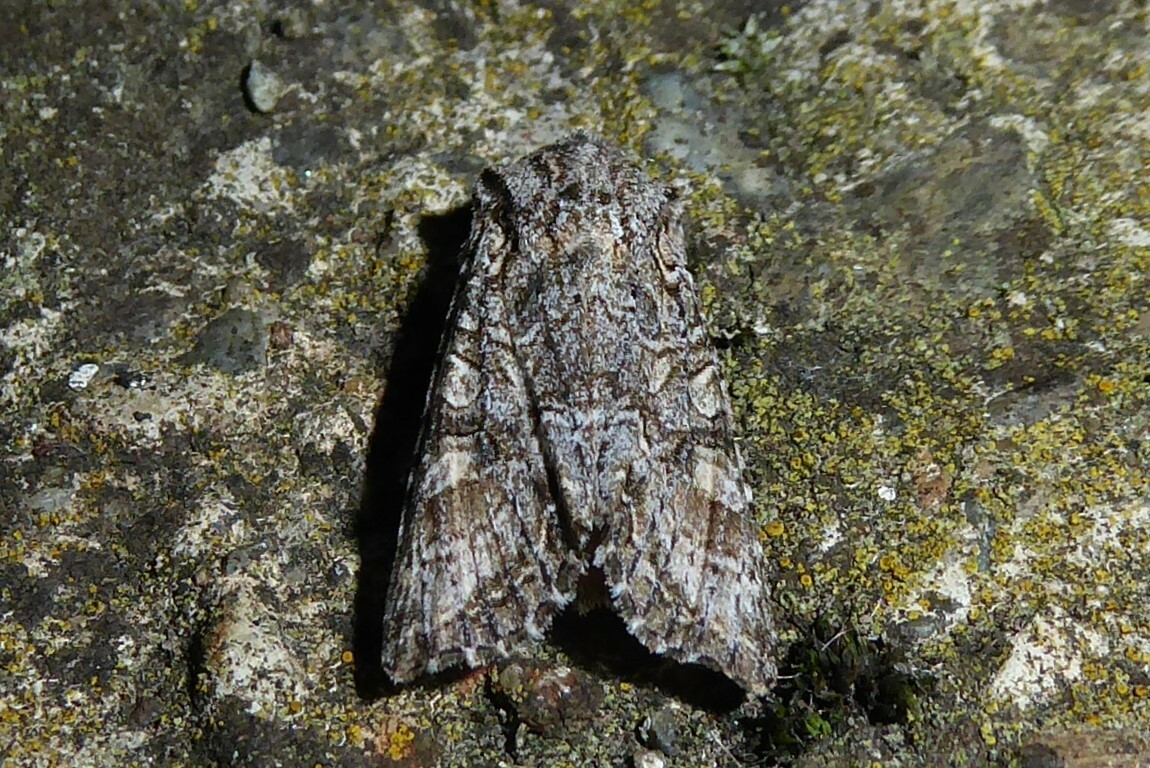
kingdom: Animalia
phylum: Arthropoda
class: Insecta
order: Lepidoptera
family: Noctuidae
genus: Ichneutica
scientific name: Ichneutica mutans
